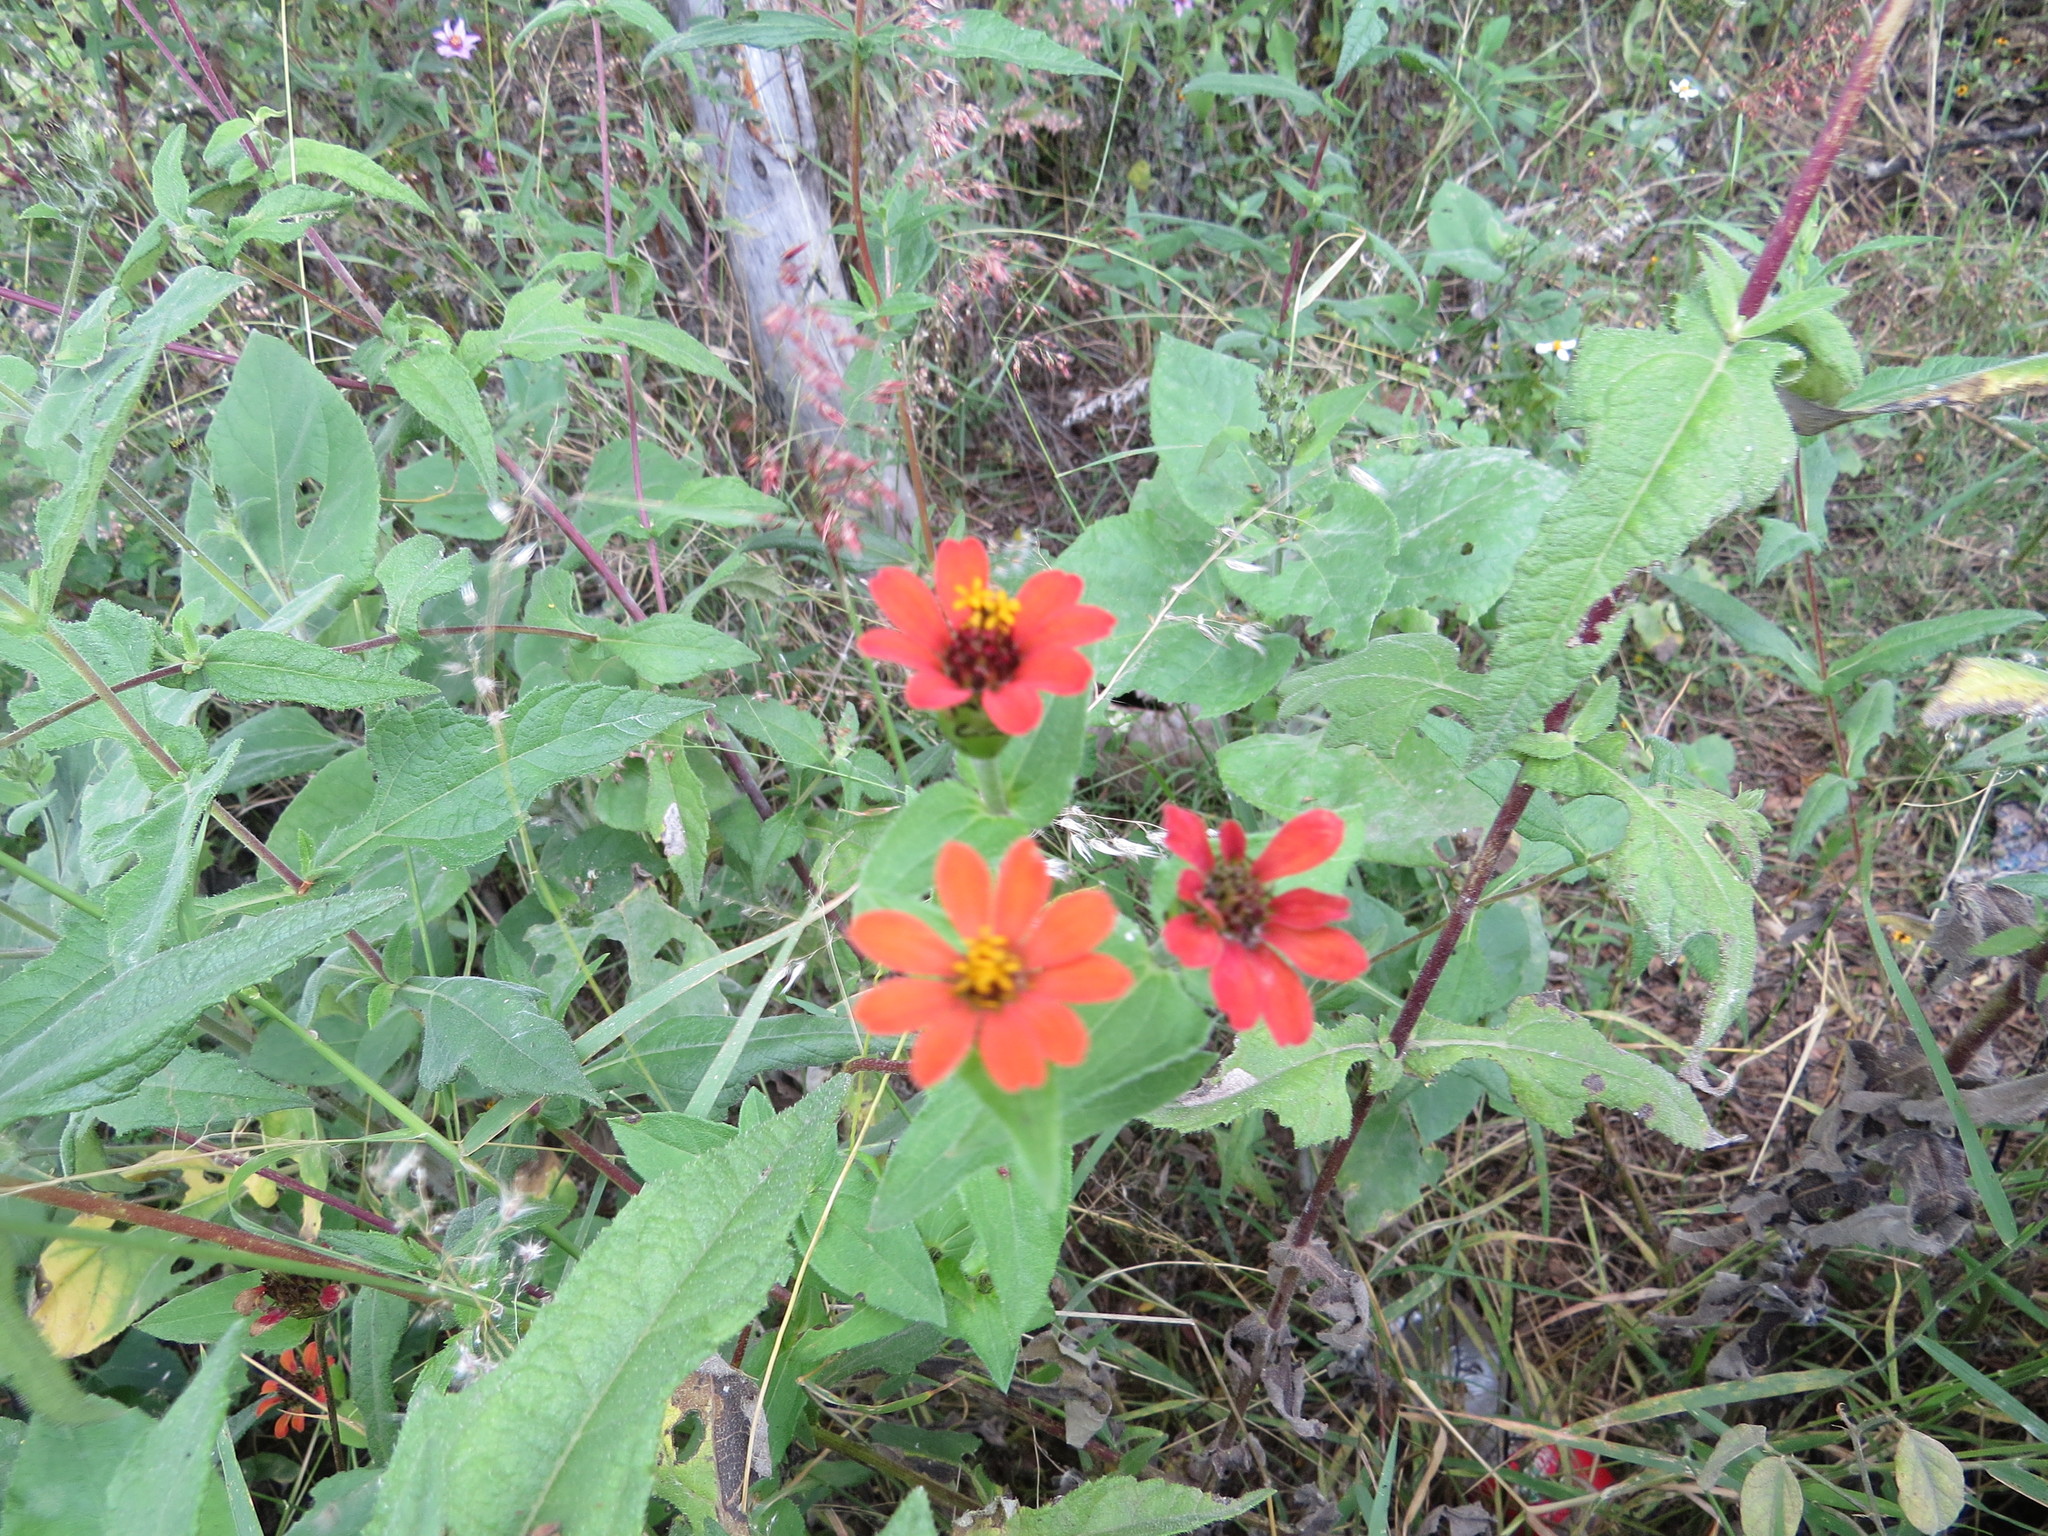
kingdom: Plantae
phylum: Tracheophyta
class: Magnoliopsida
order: Asterales
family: Asteraceae
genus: Zinnia
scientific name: Zinnia peruviana
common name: Peruvian zinnia
